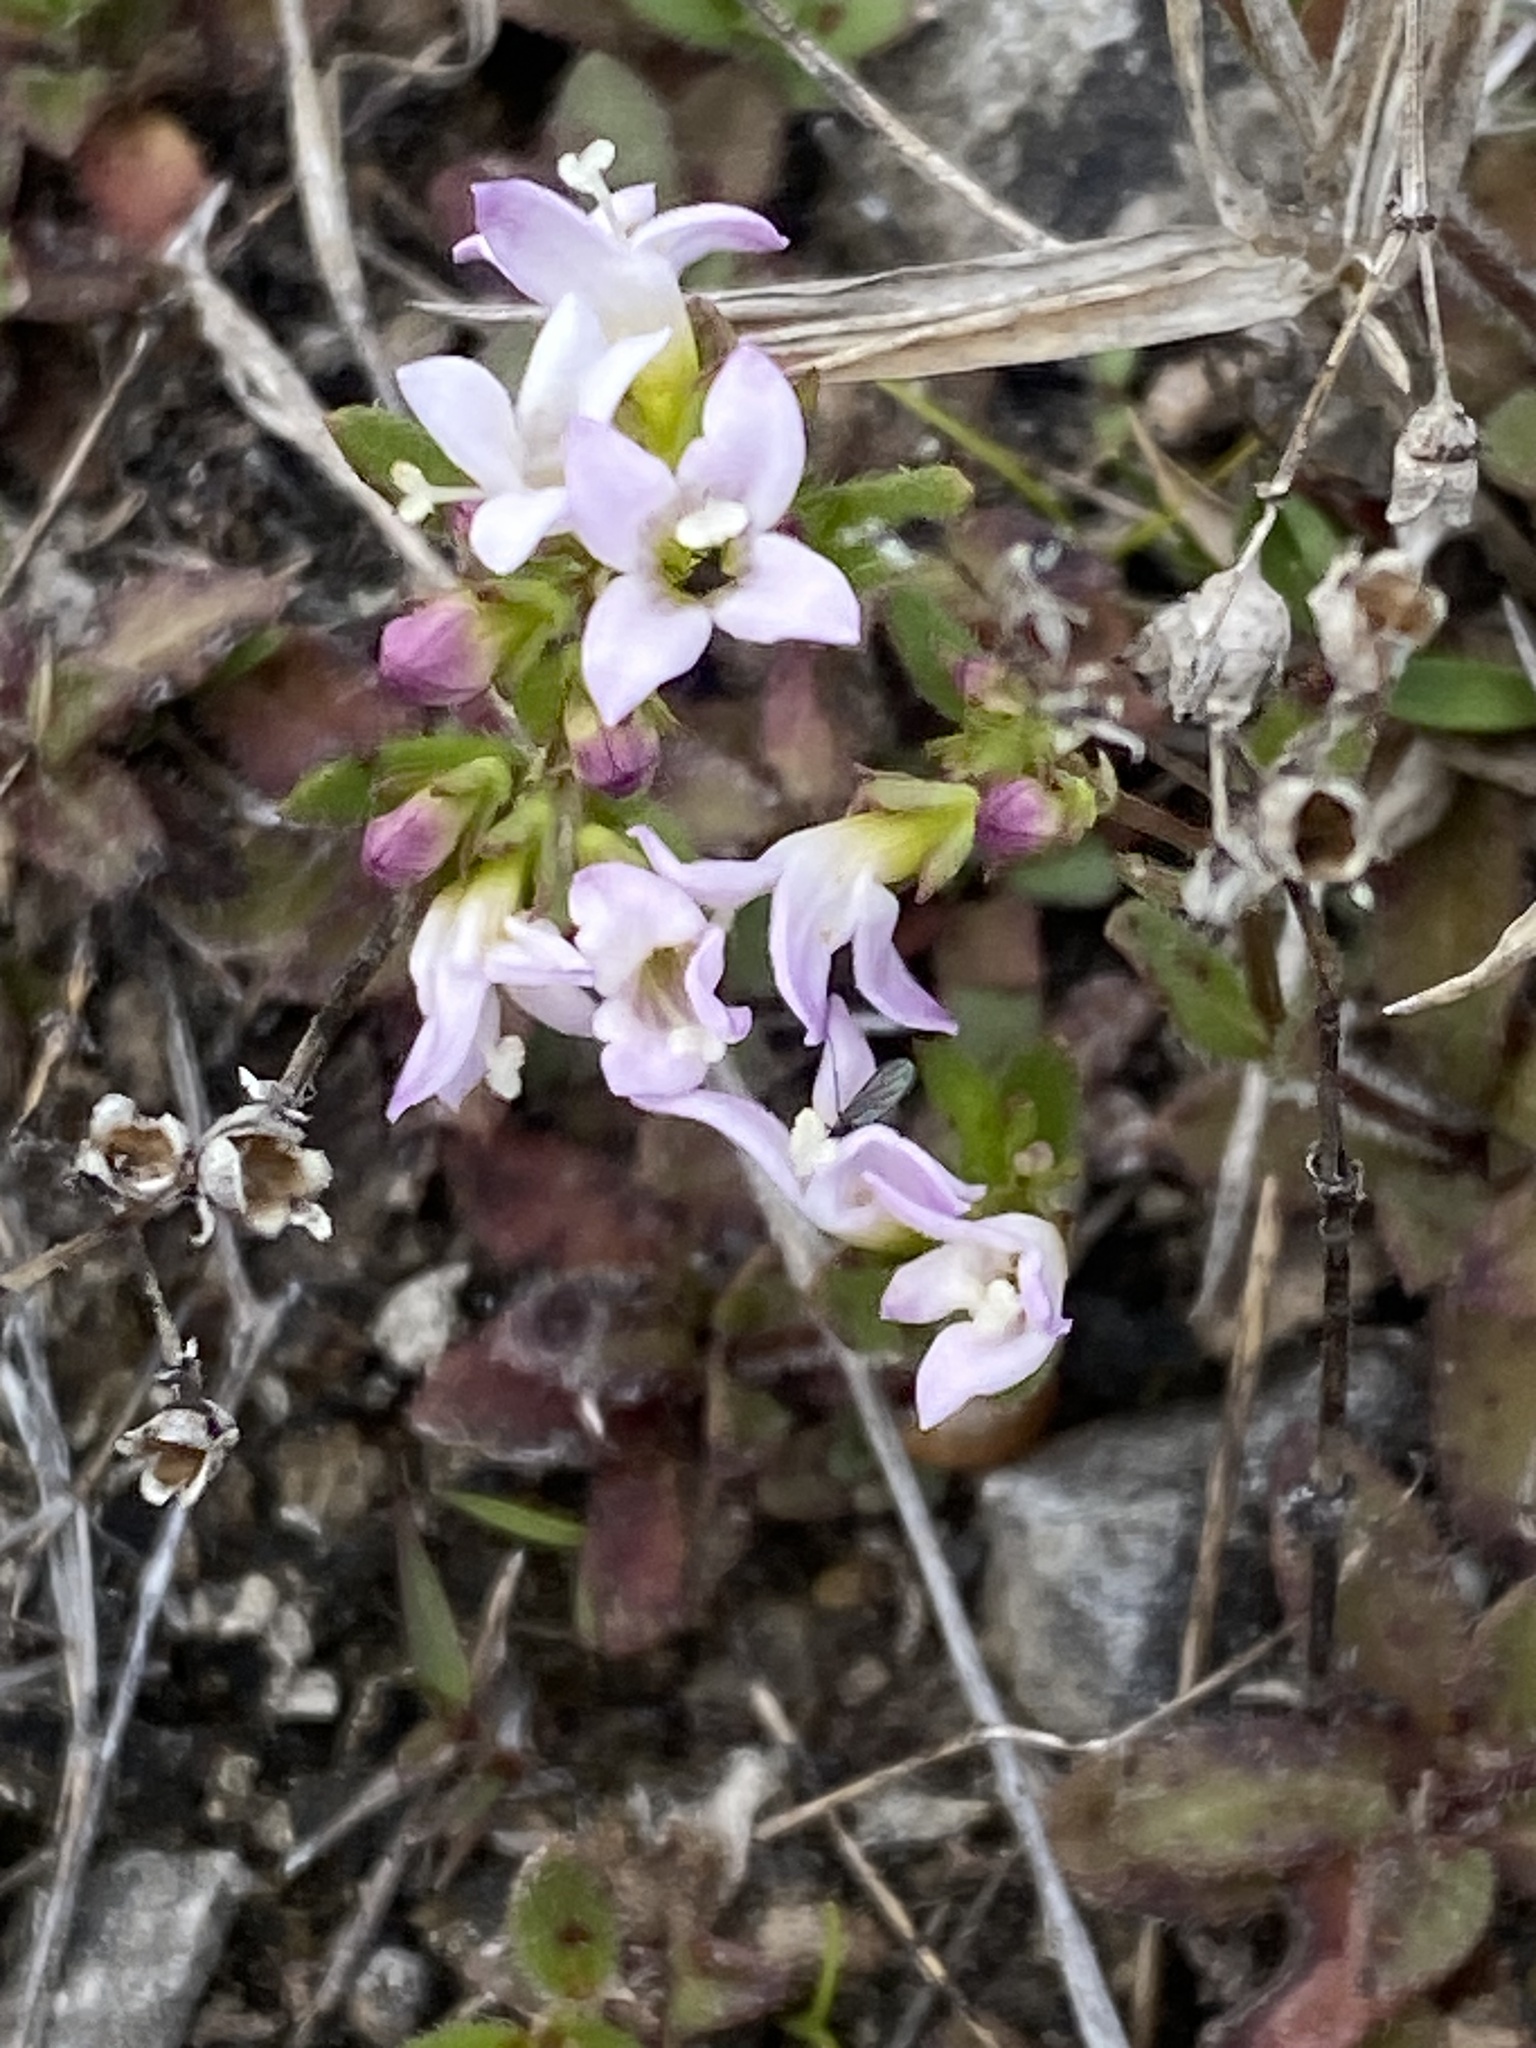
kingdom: Plantae
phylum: Tracheophyta
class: Magnoliopsida
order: Gentianales
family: Rubiaceae
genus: Houstonia
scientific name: Houstonia canadensis
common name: Fringed houstonia
